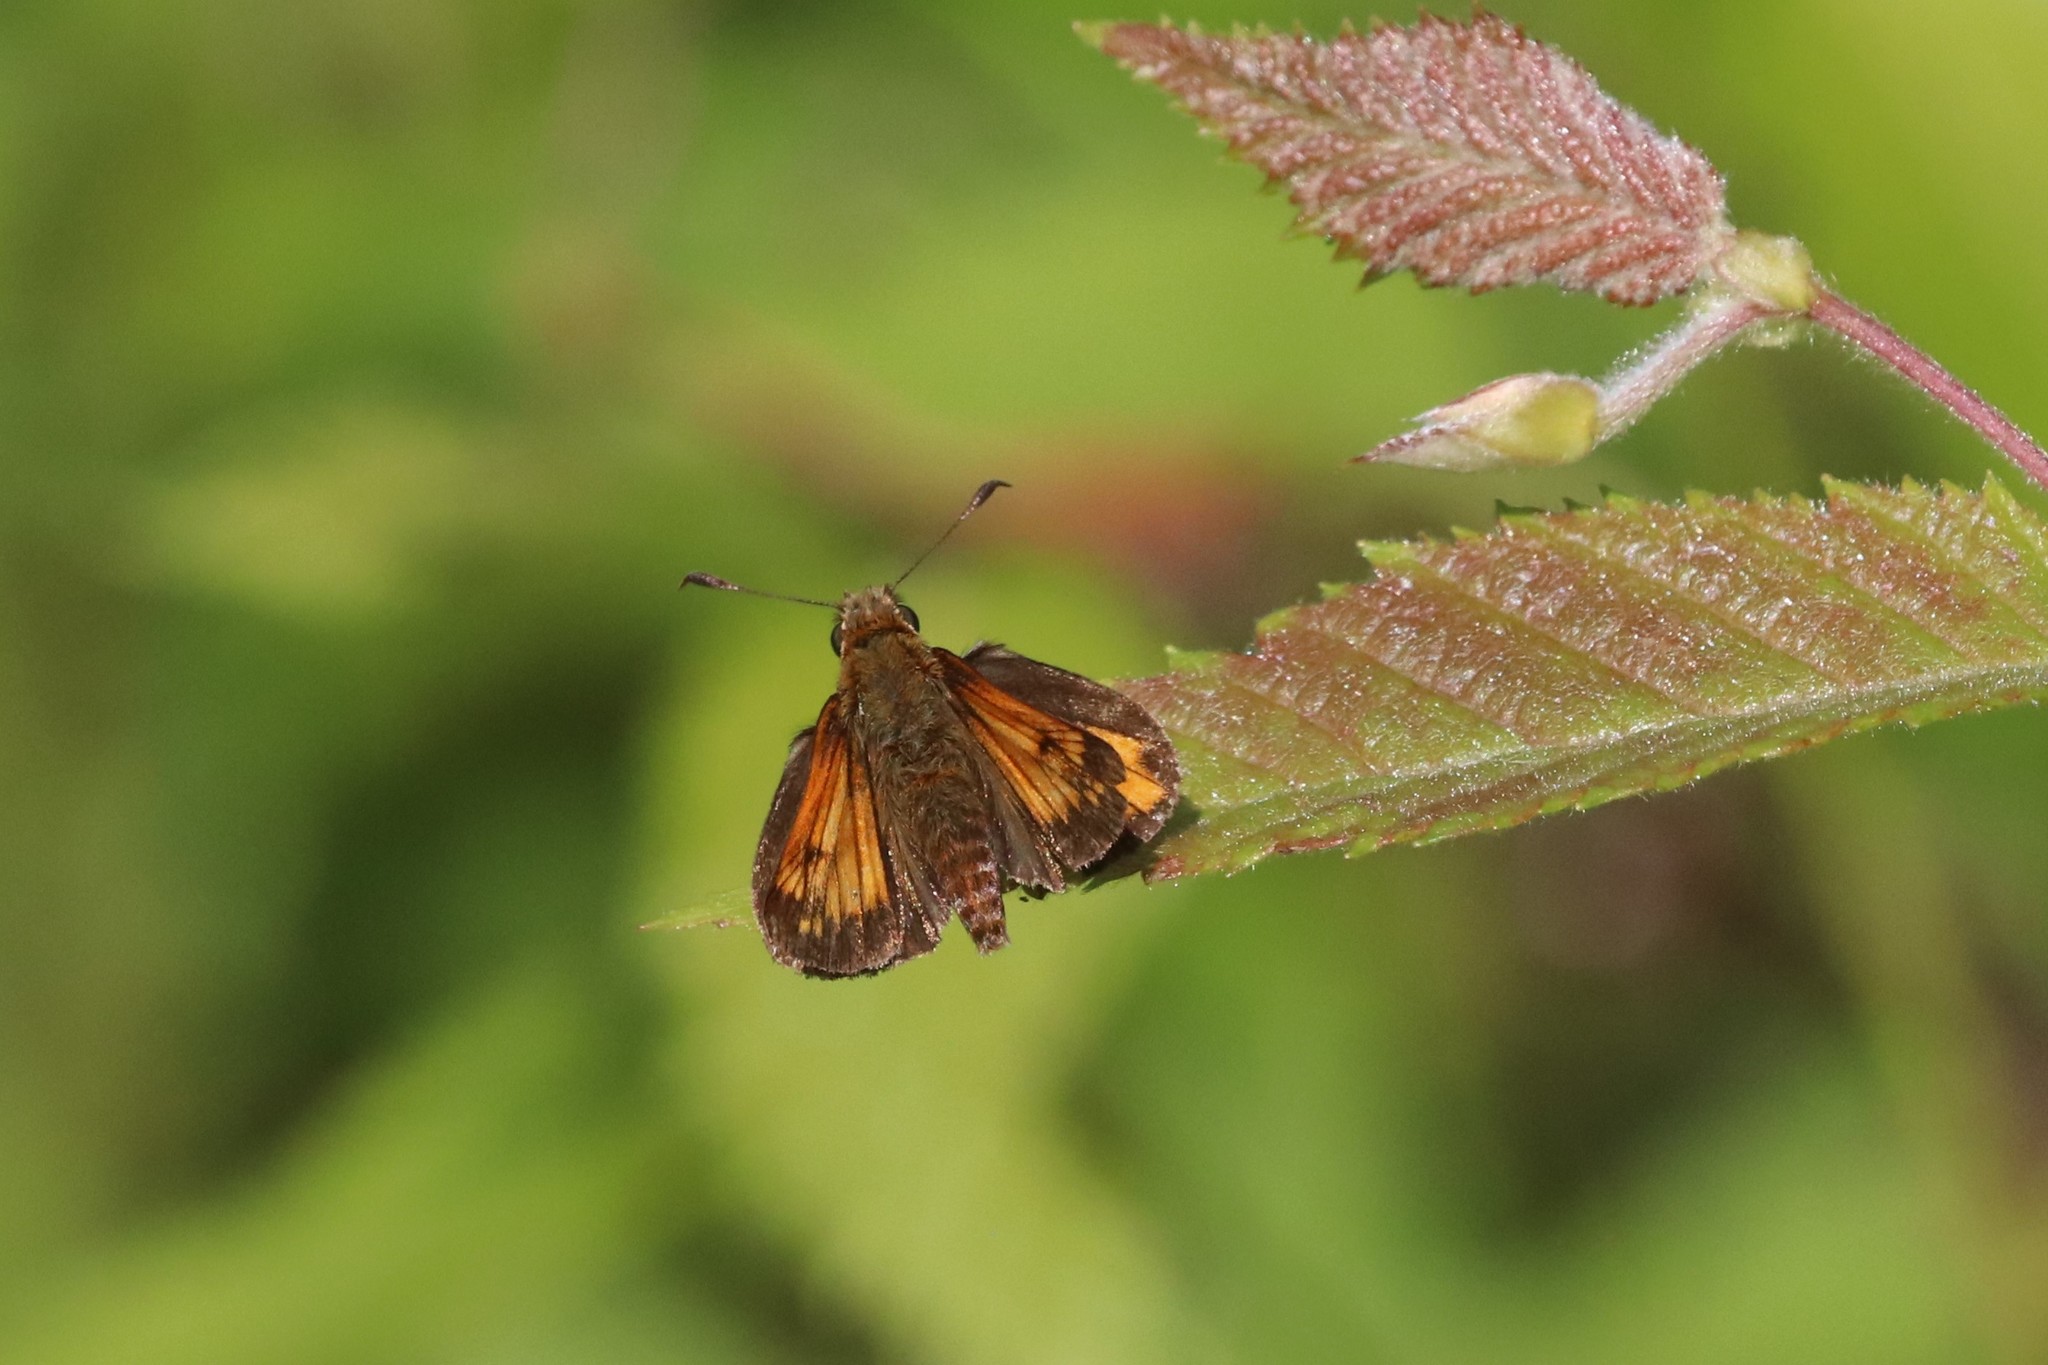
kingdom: Animalia
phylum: Arthropoda
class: Insecta
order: Lepidoptera
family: Hesperiidae
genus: Lon
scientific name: Lon hobomok
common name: Hobomok skipper
